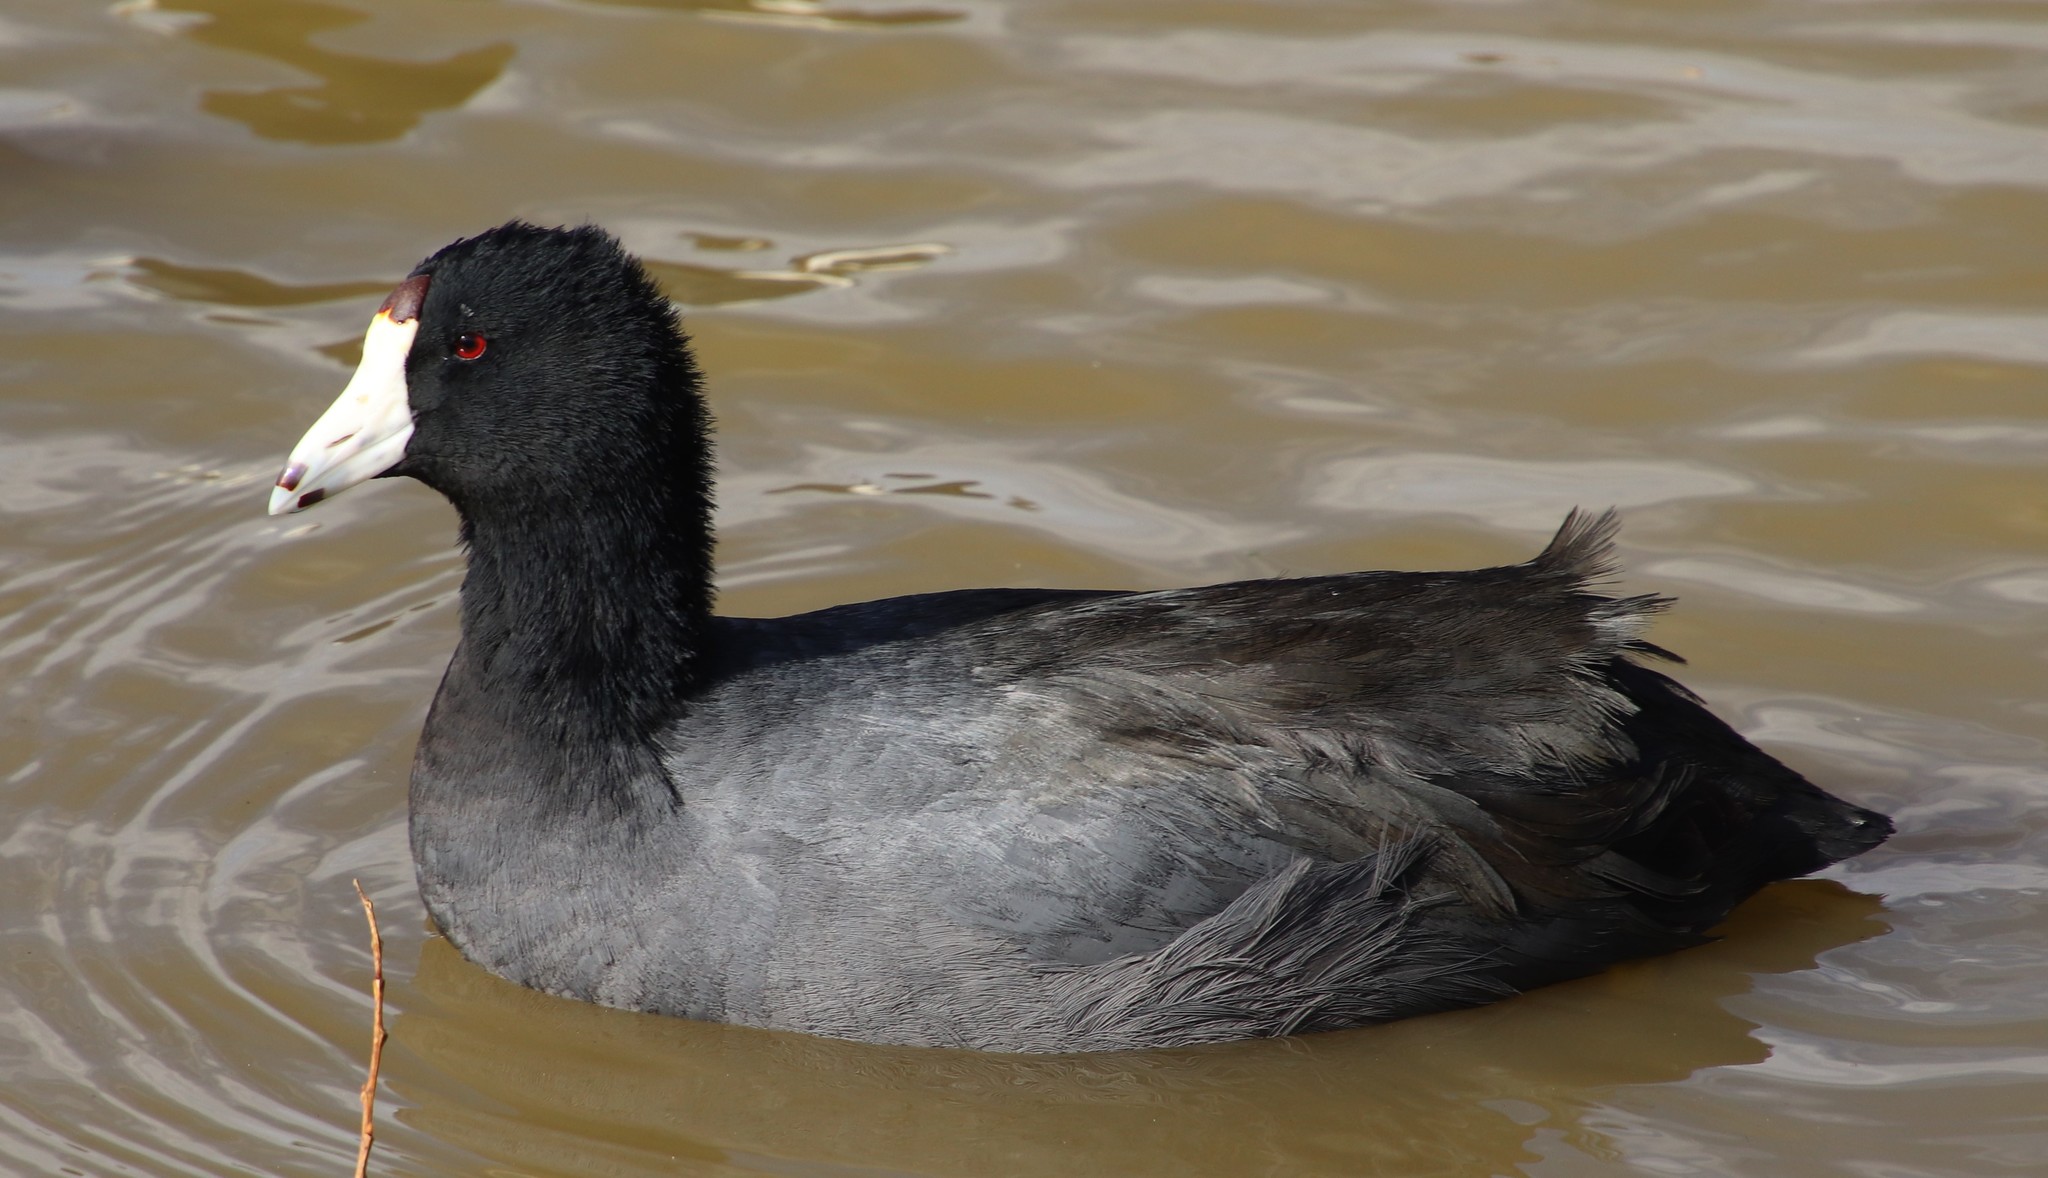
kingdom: Animalia
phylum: Chordata
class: Aves
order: Gruiformes
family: Rallidae
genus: Fulica
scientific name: Fulica americana
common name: American coot
